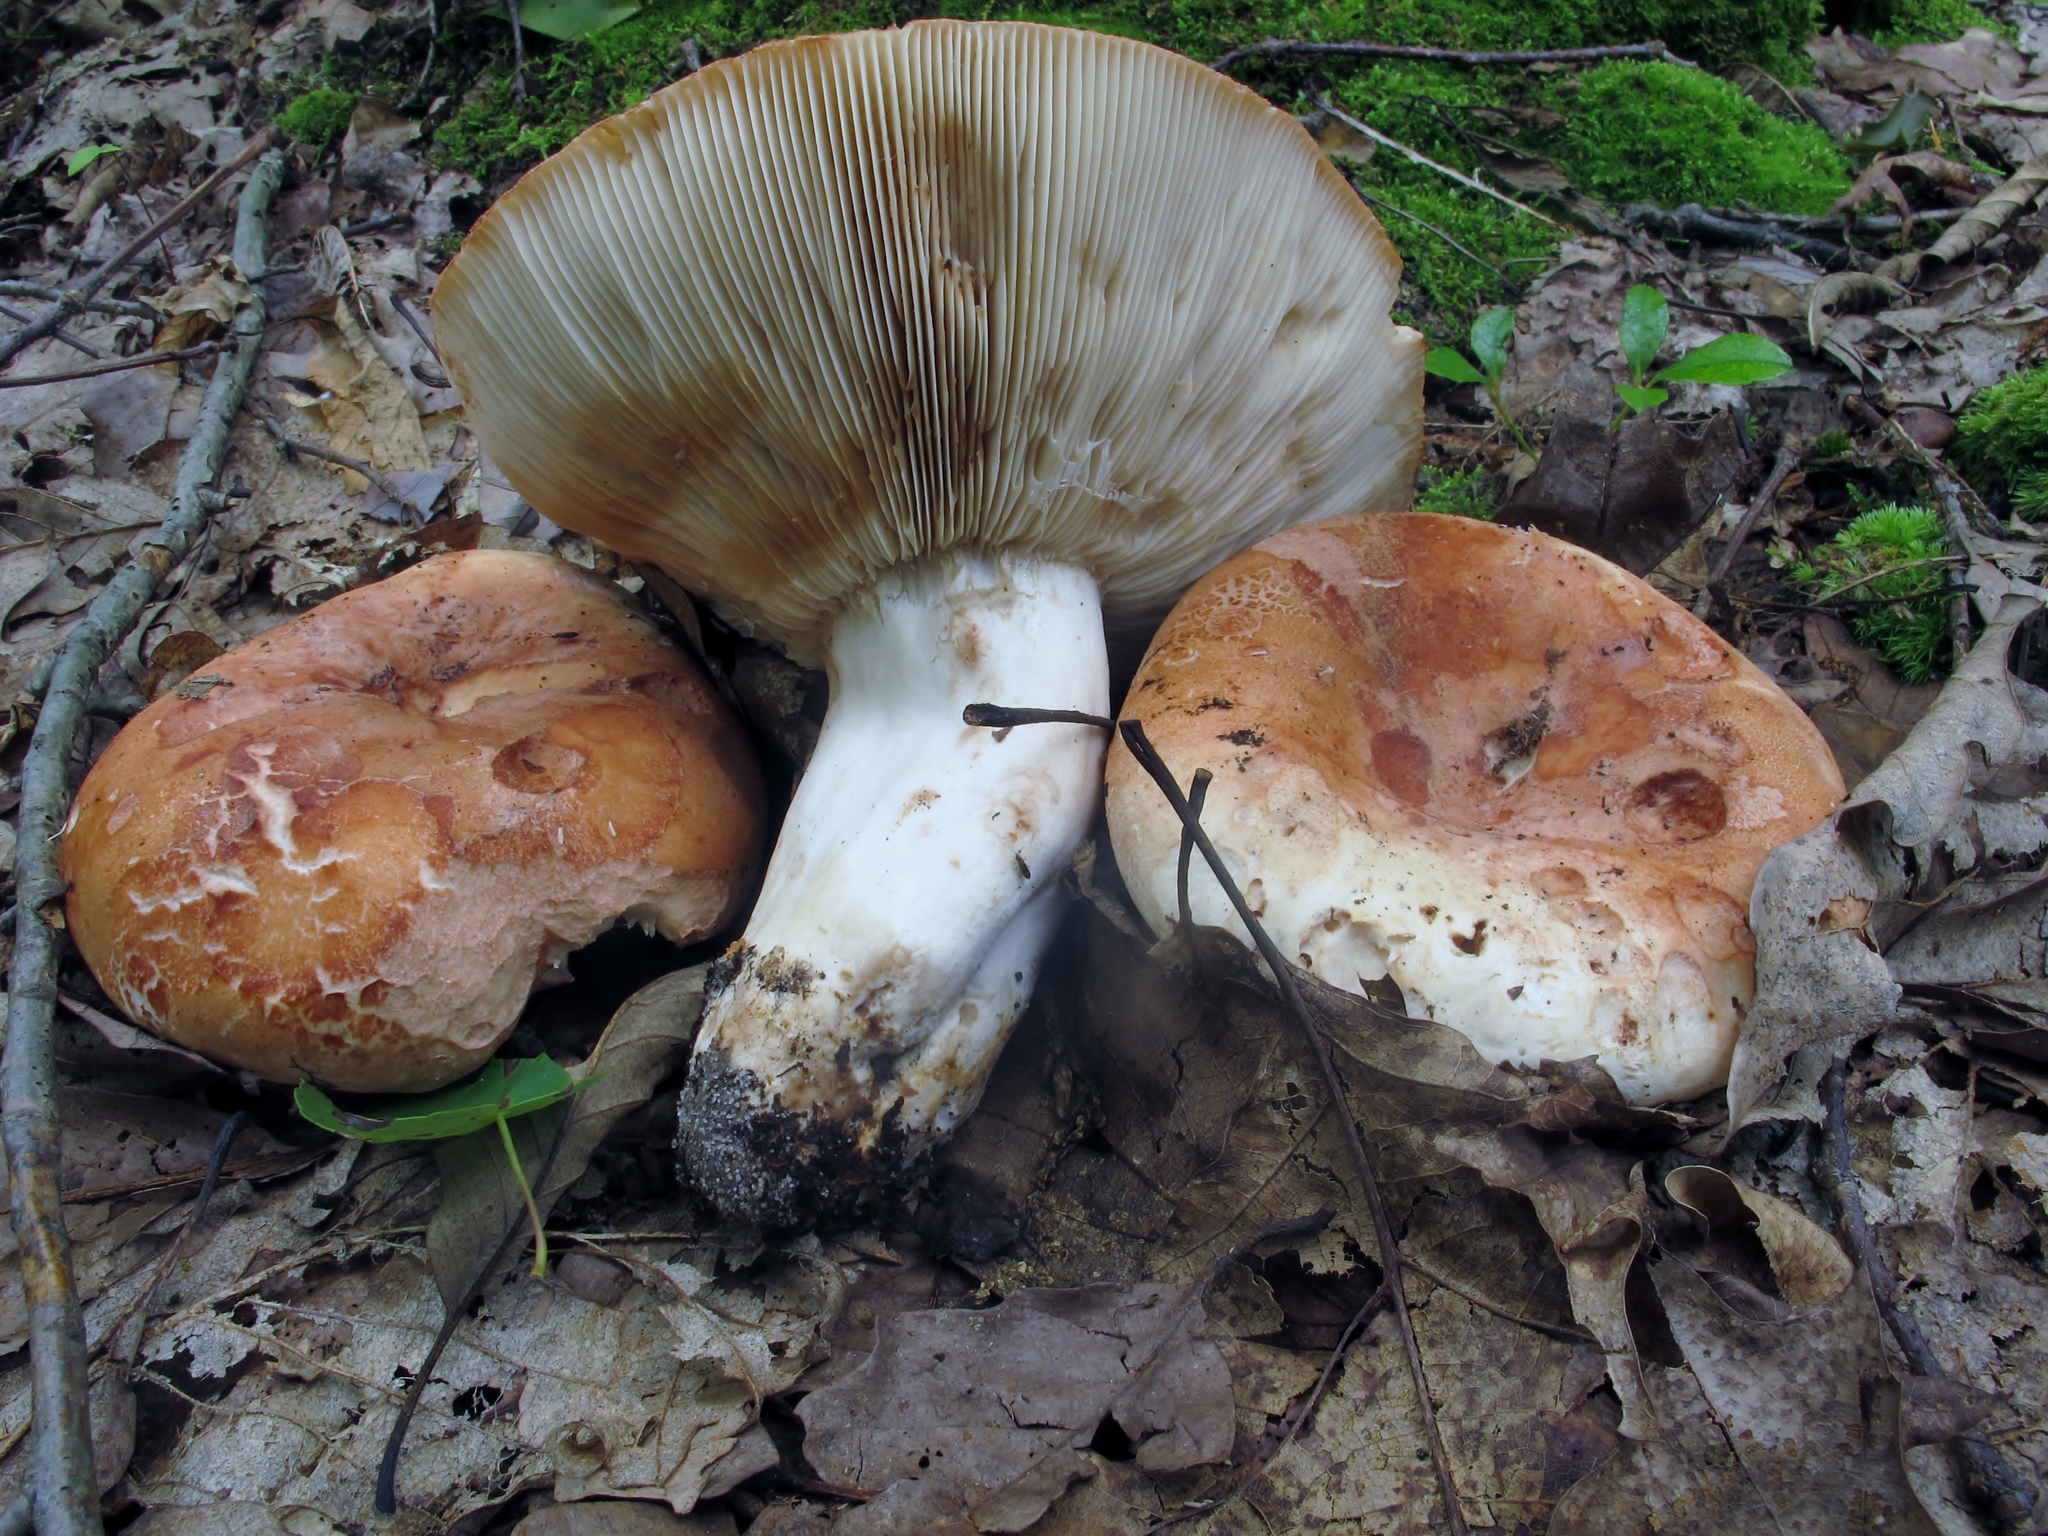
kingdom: Fungi
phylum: Basidiomycota
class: Agaricomycetes
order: Russulales
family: Russulaceae
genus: Russula
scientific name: Russula compacta
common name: Fishbiscuit russula
